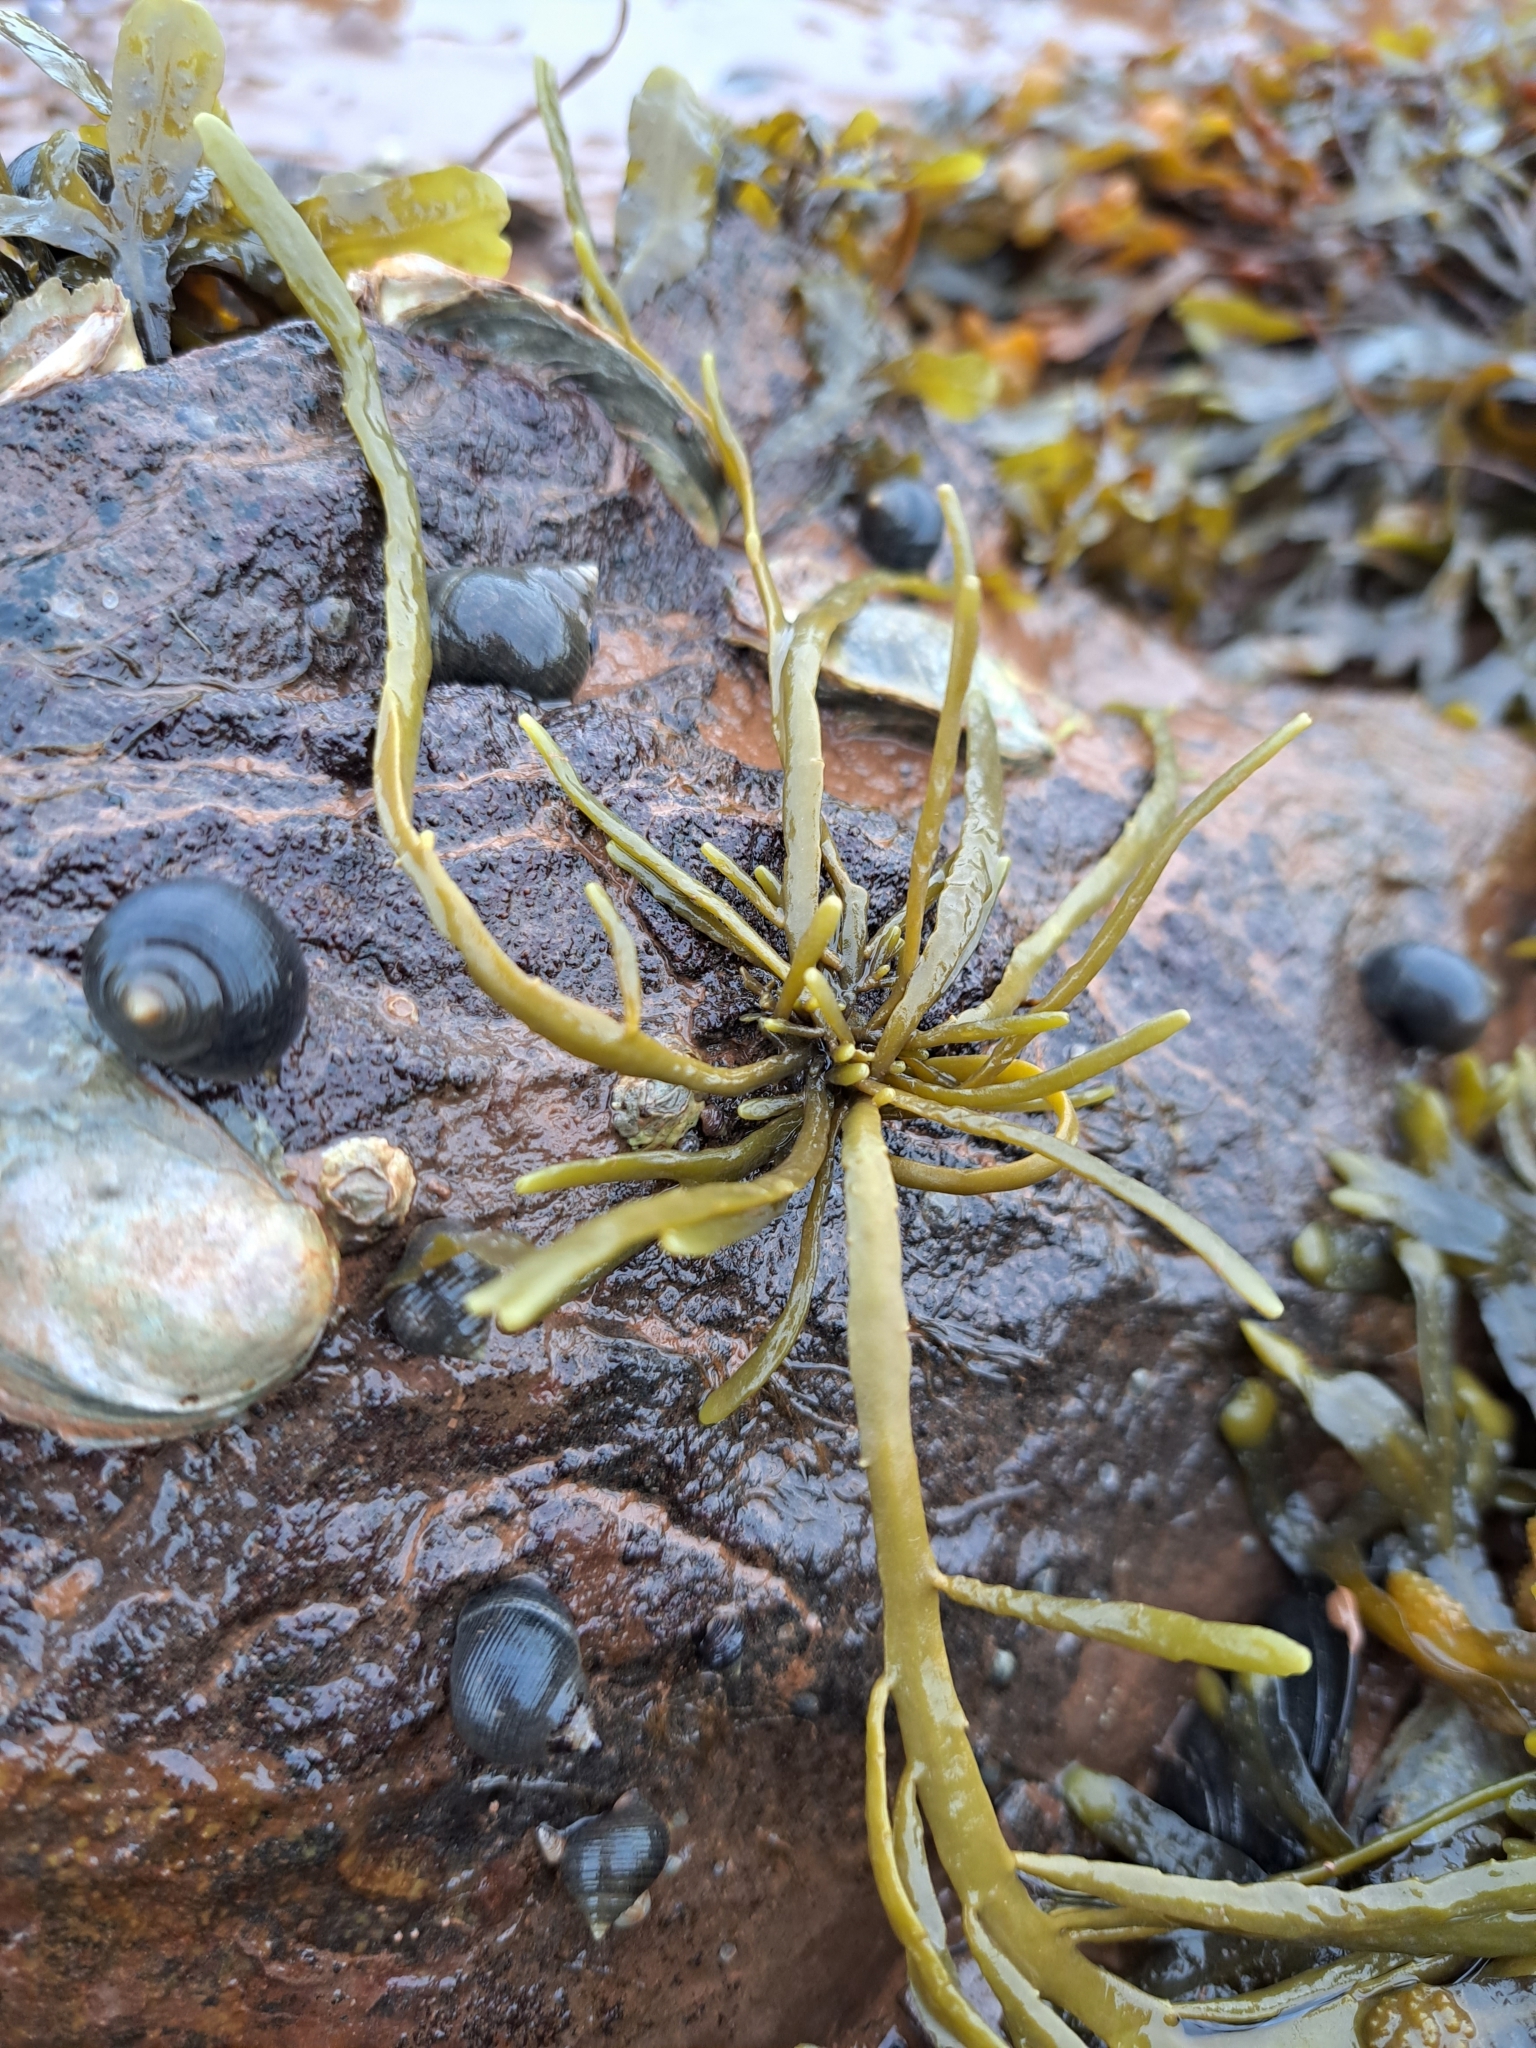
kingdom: Chromista
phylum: Ochrophyta
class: Phaeophyceae
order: Fucales
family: Fucaceae
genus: Ascophyllum
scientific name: Ascophyllum nodosum
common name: Knotted wrack
